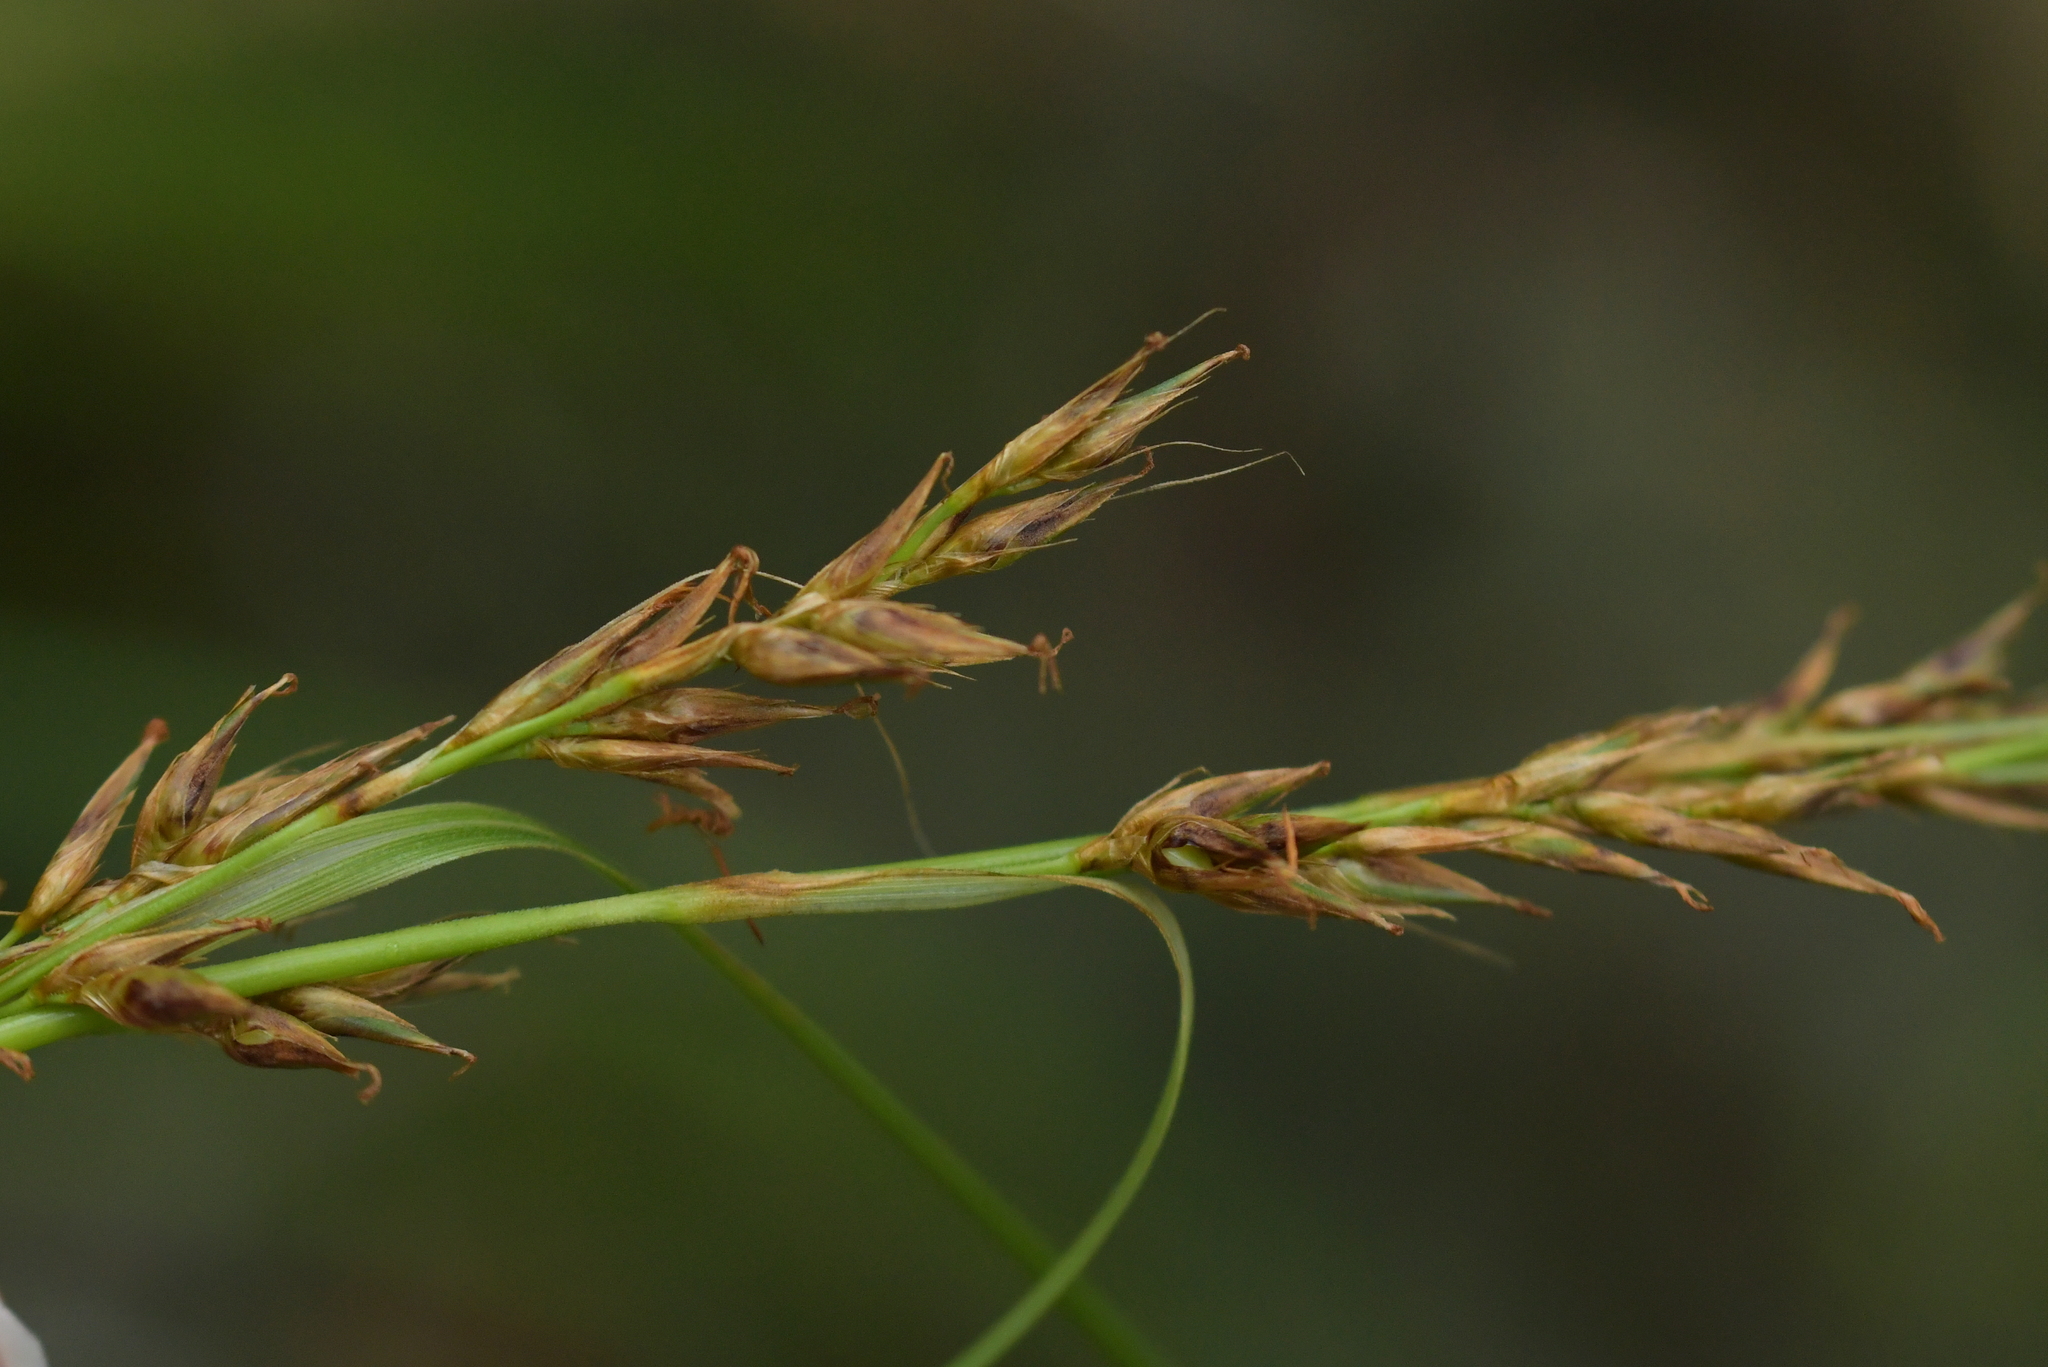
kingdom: Plantae
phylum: Tracheophyta
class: Liliopsida
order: Poales
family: Cyperaceae
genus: Morelotia
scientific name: Morelotia affinis
